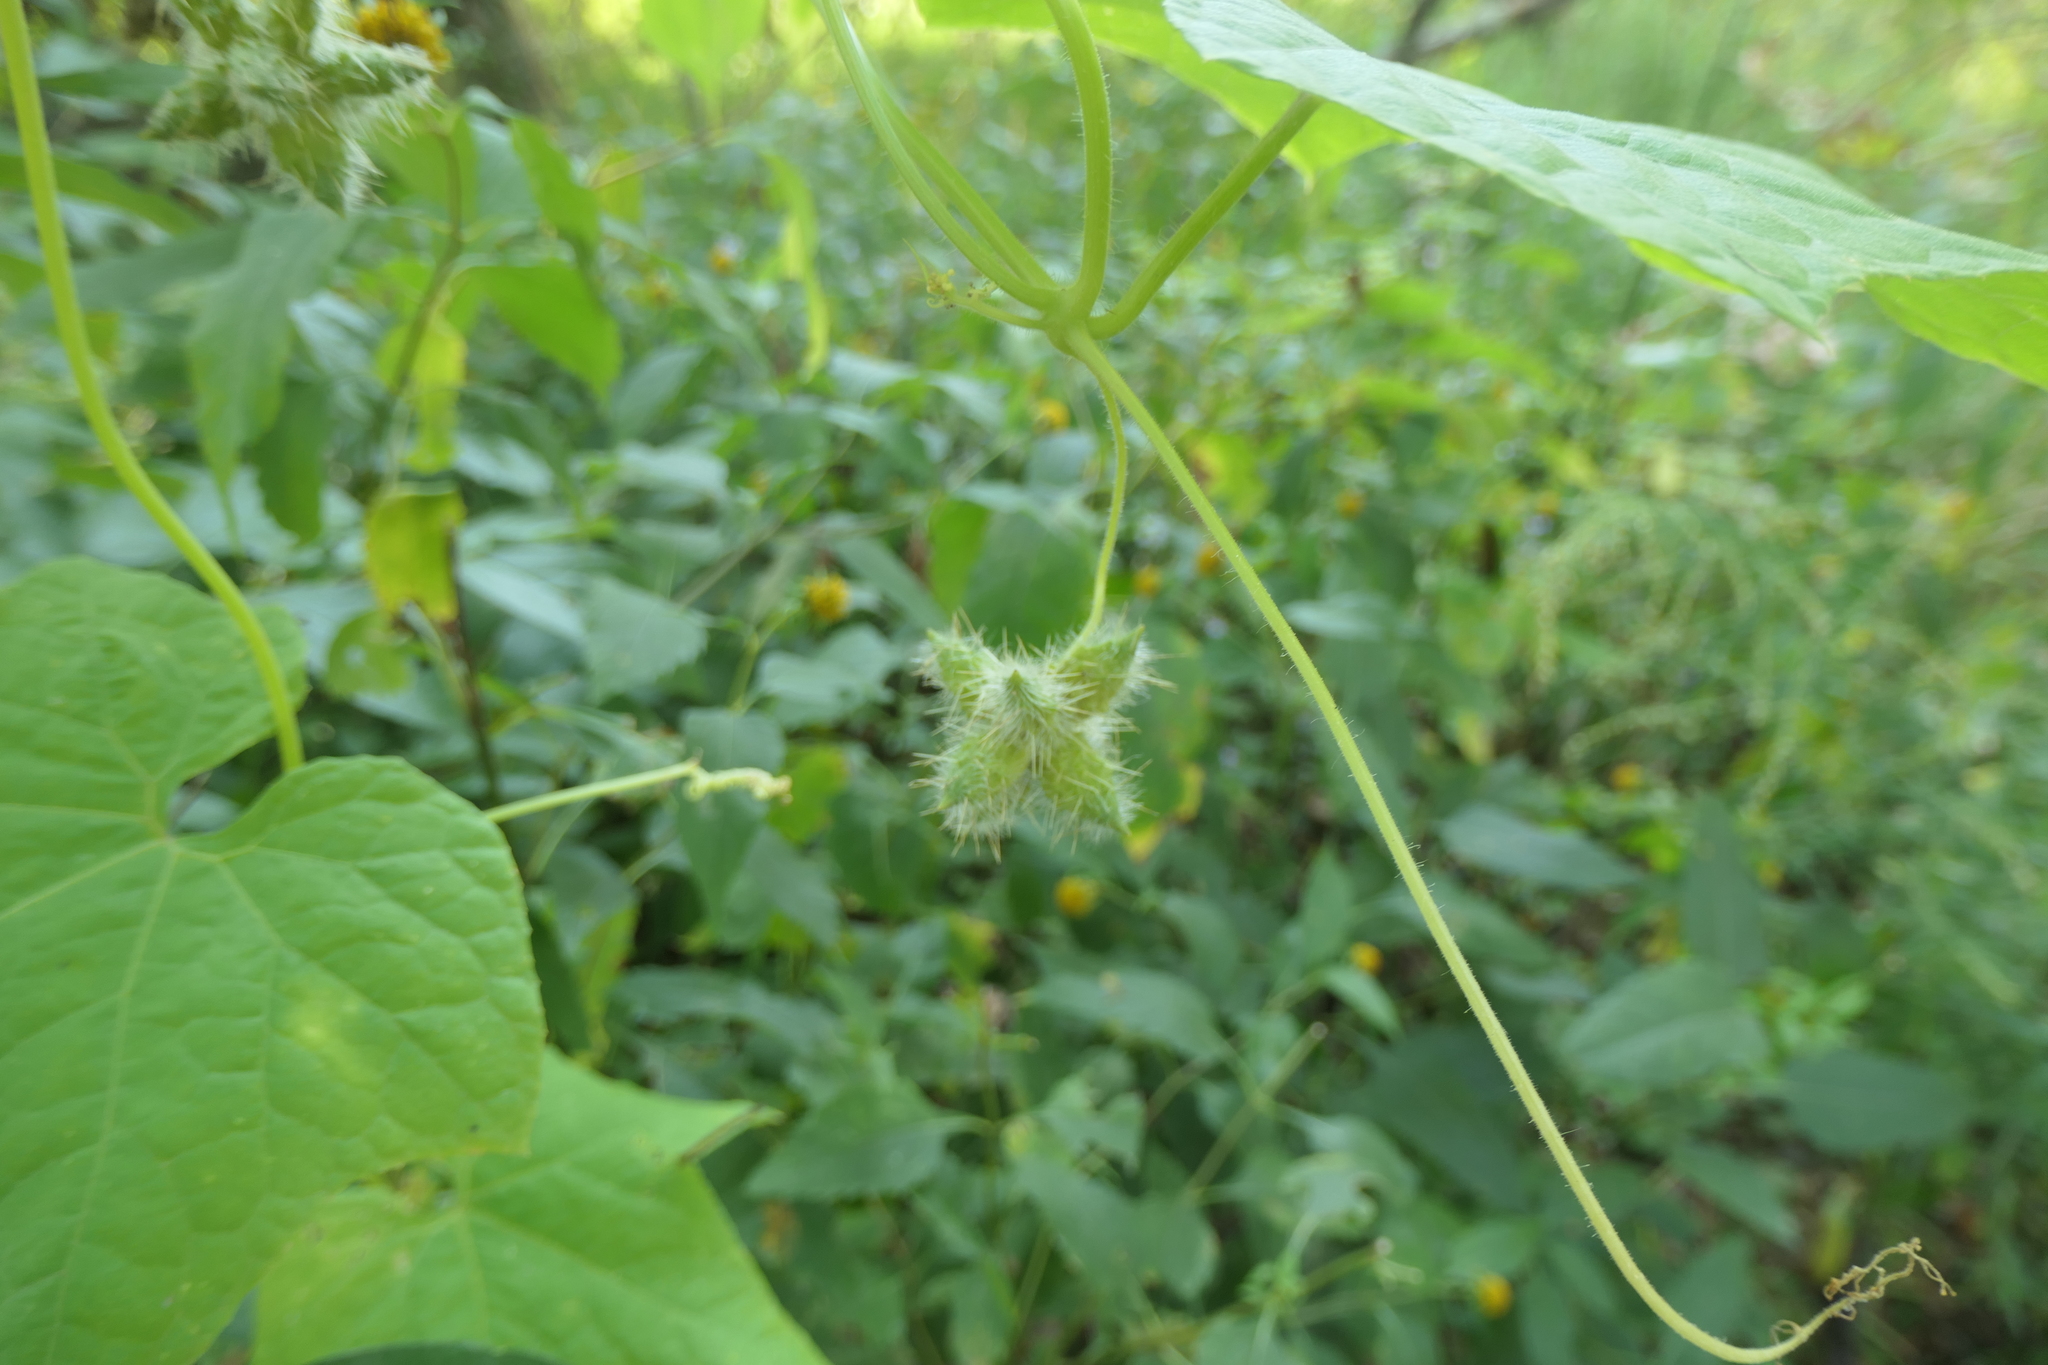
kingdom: Plantae
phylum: Tracheophyta
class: Magnoliopsida
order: Cucurbitales
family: Cucurbitaceae
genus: Sicyos
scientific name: Sicyos angulatus
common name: Angled burr cucumber
